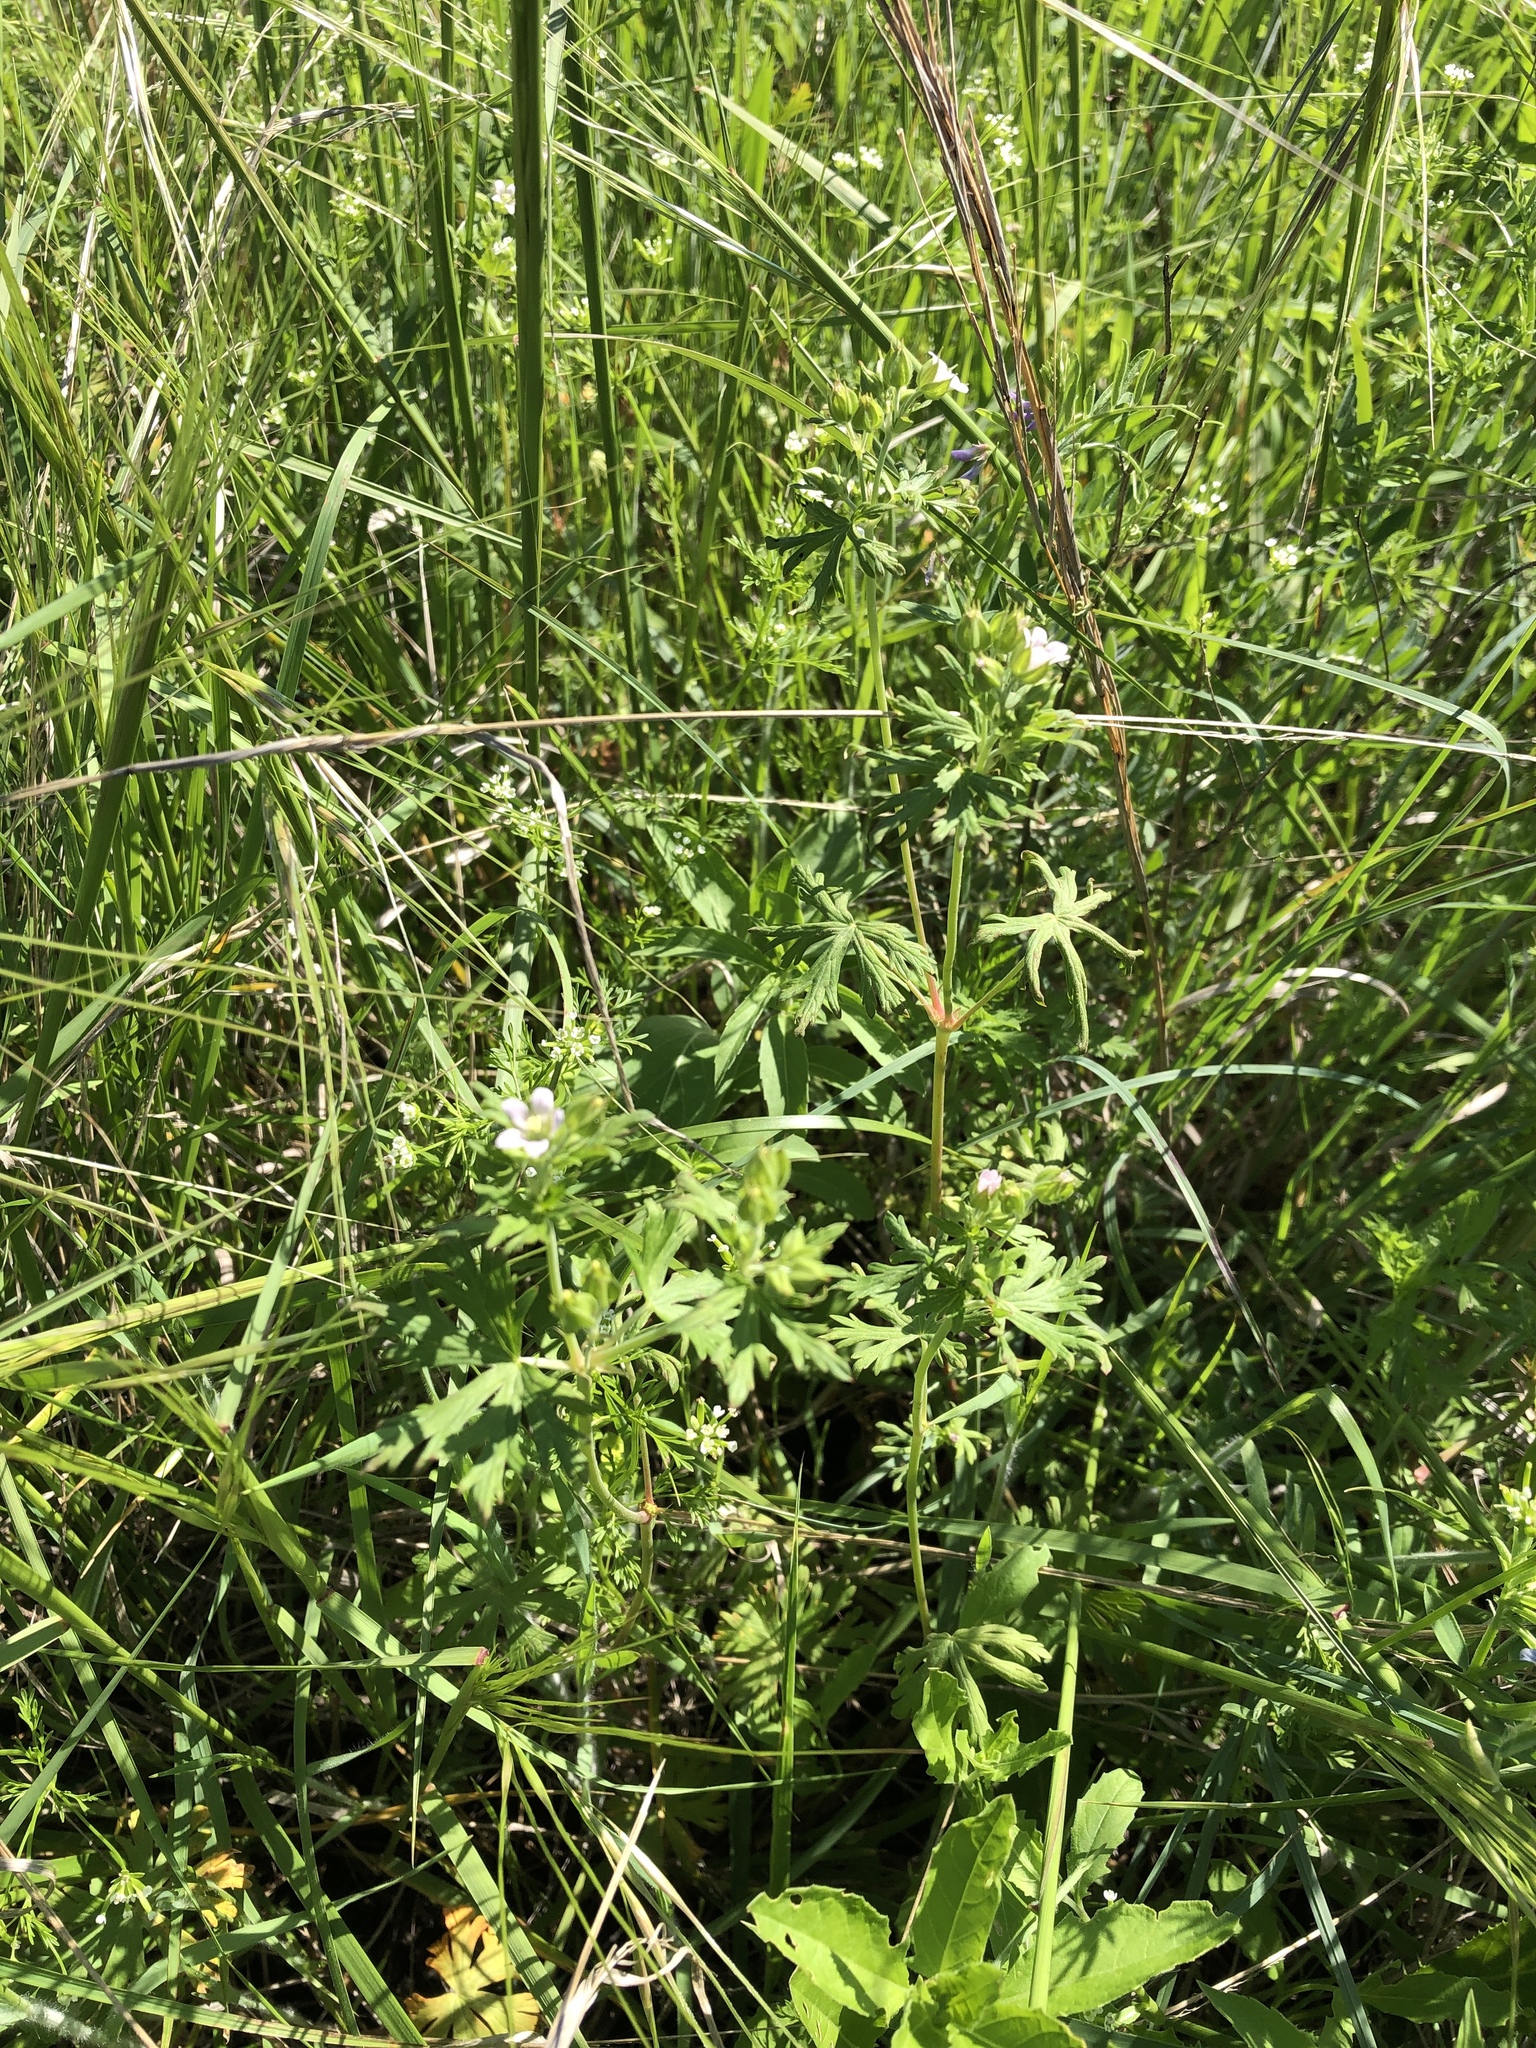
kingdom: Plantae
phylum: Tracheophyta
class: Magnoliopsida
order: Geraniales
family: Geraniaceae
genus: Geranium
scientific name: Geranium carolinianum
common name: Carolina crane's-bill
